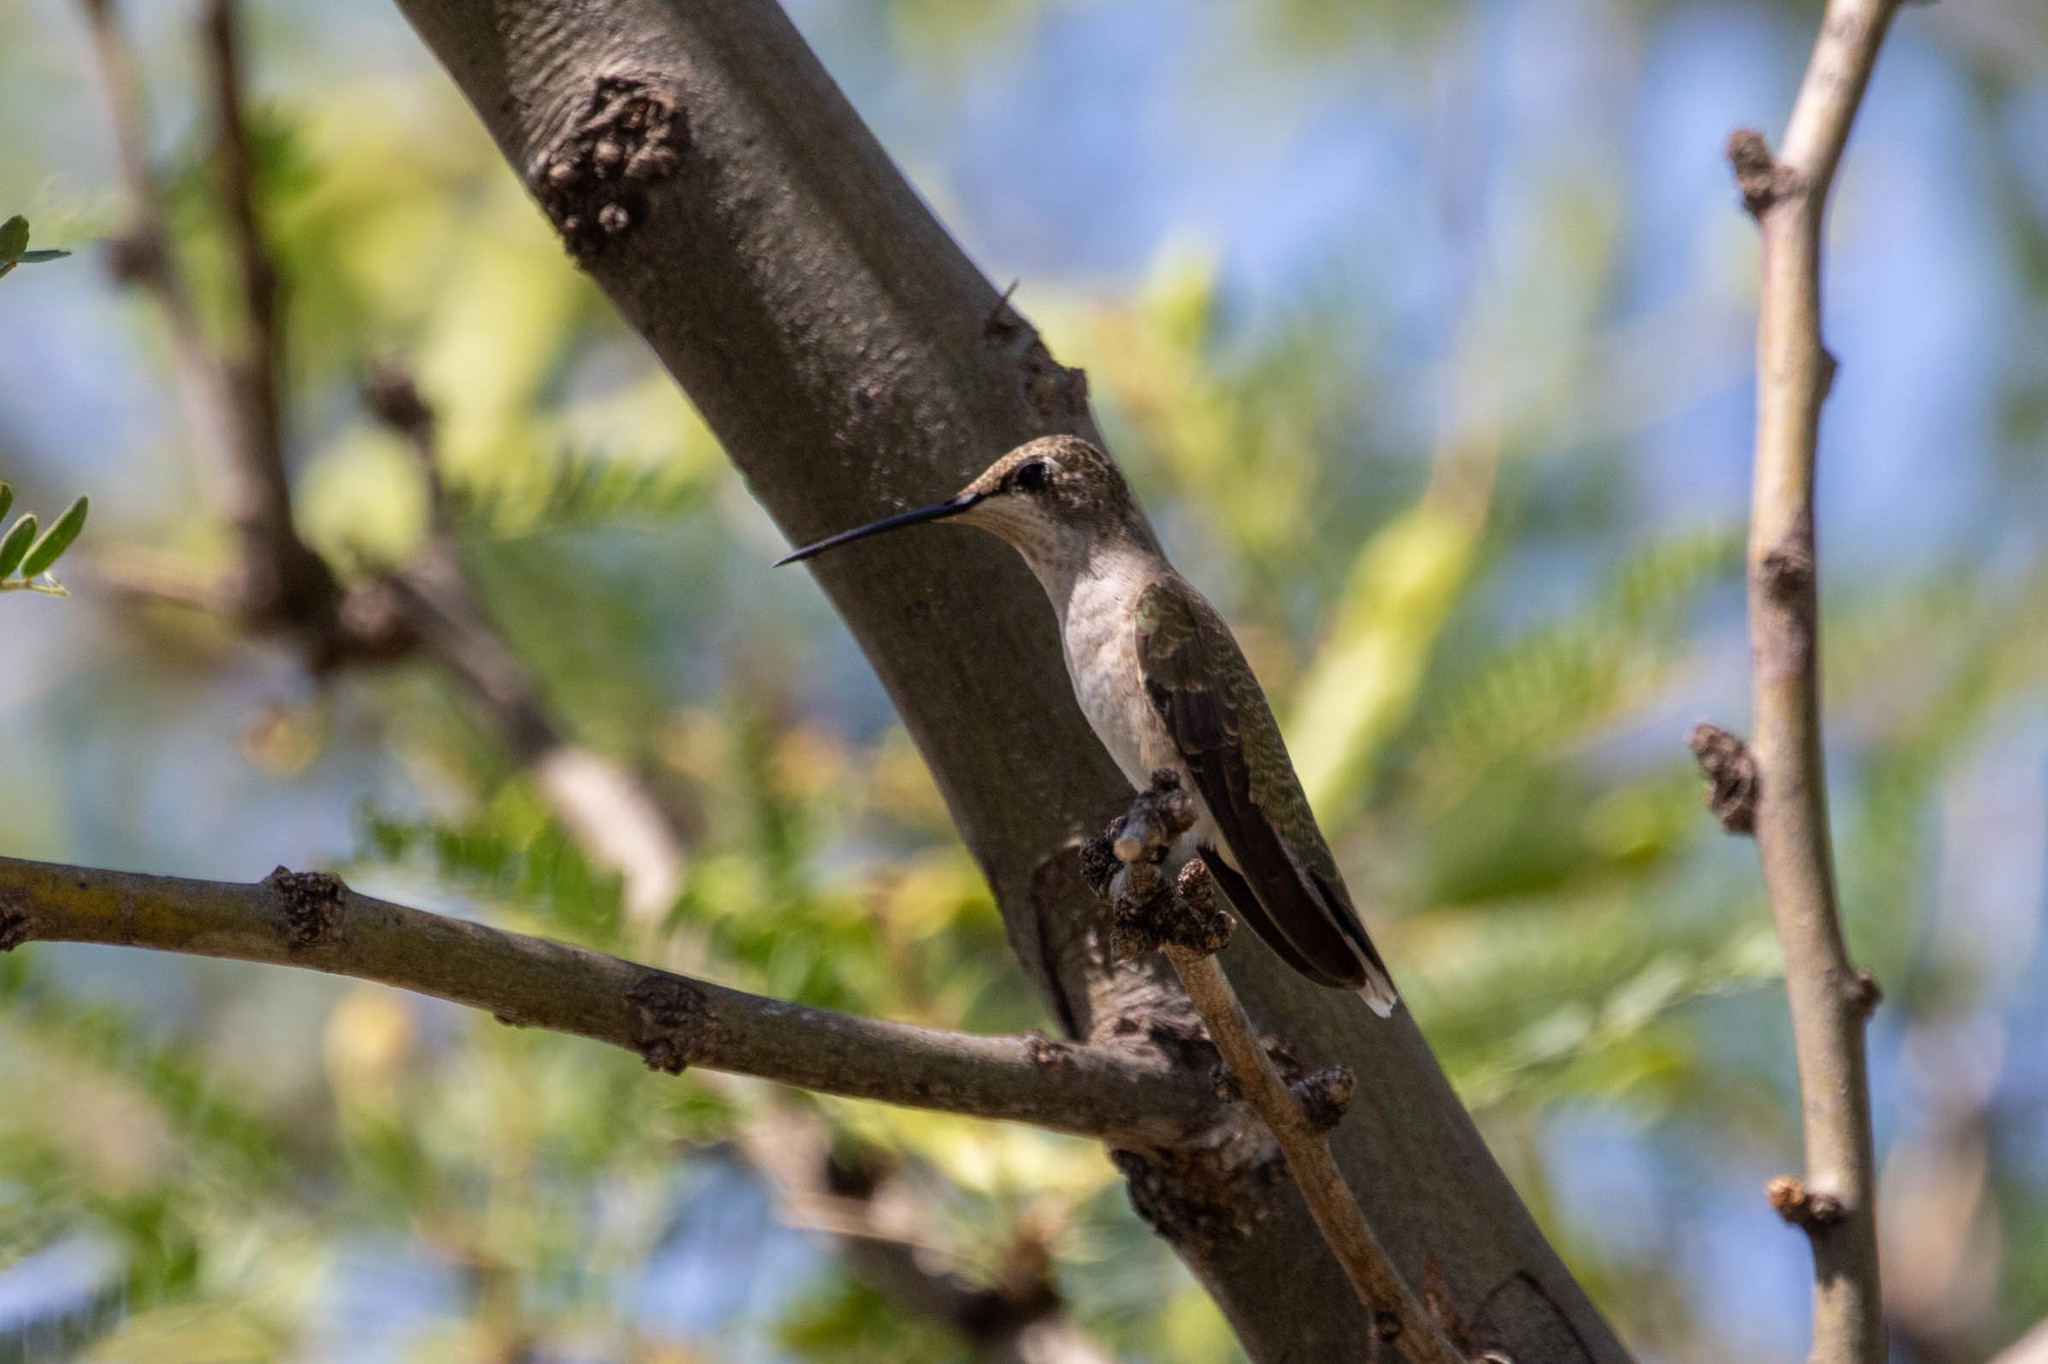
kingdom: Animalia
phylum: Chordata
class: Aves
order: Apodiformes
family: Trochilidae
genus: Archilochus
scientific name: Archilochus alexandri
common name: Black-chinned hummingbird
